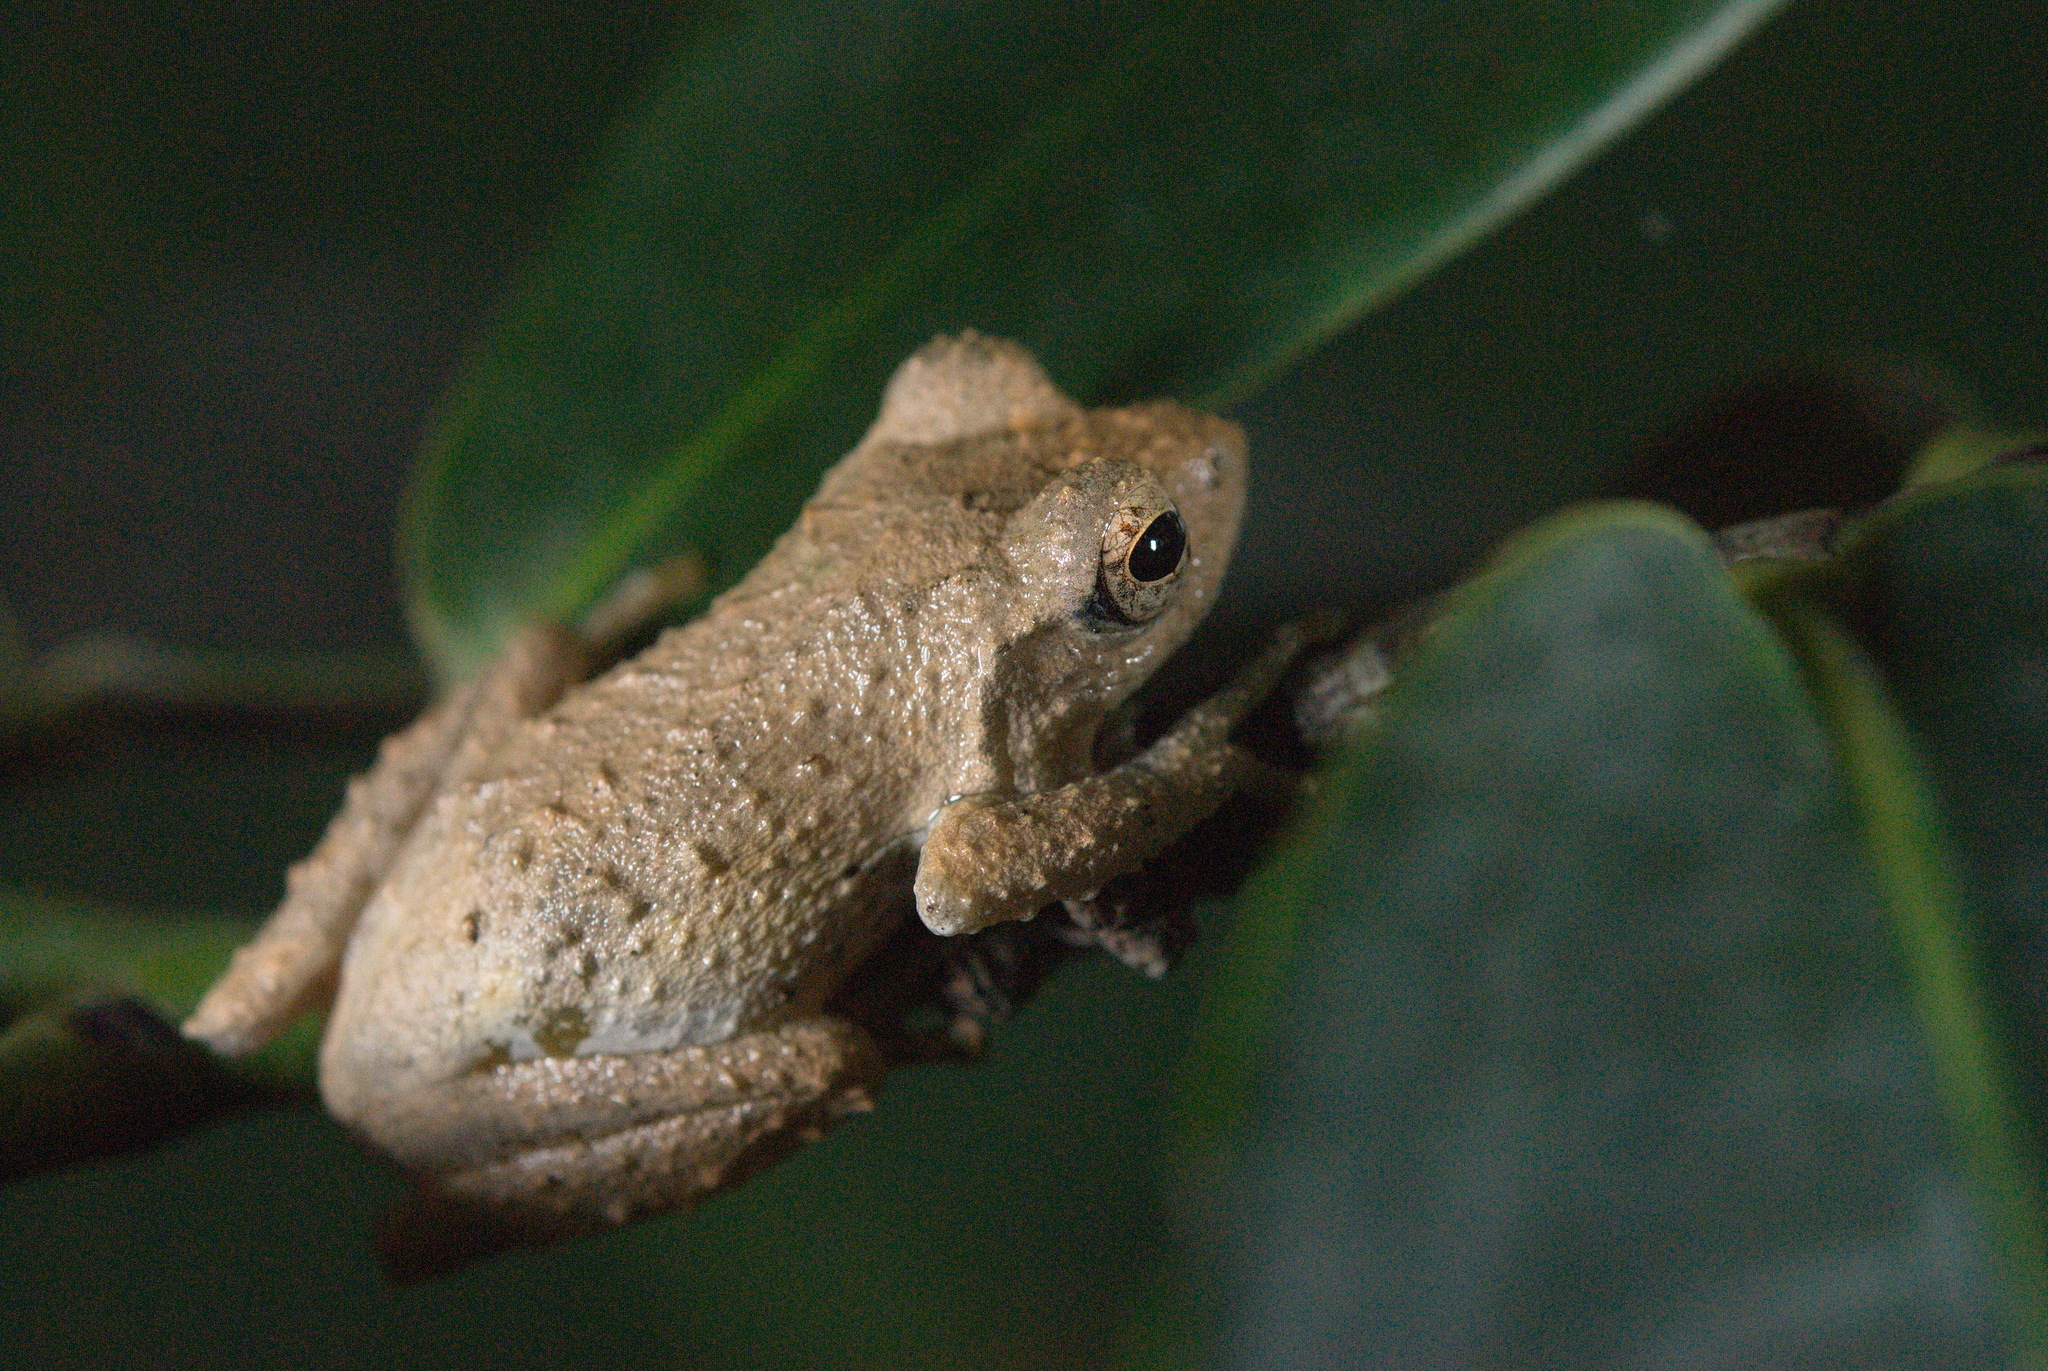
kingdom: Animalia
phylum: Chordata
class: Amphibia
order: Anura
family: Rhacophoridae
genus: Kurixalus
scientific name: Kurixalus idiootocus
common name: Temple treefrog
